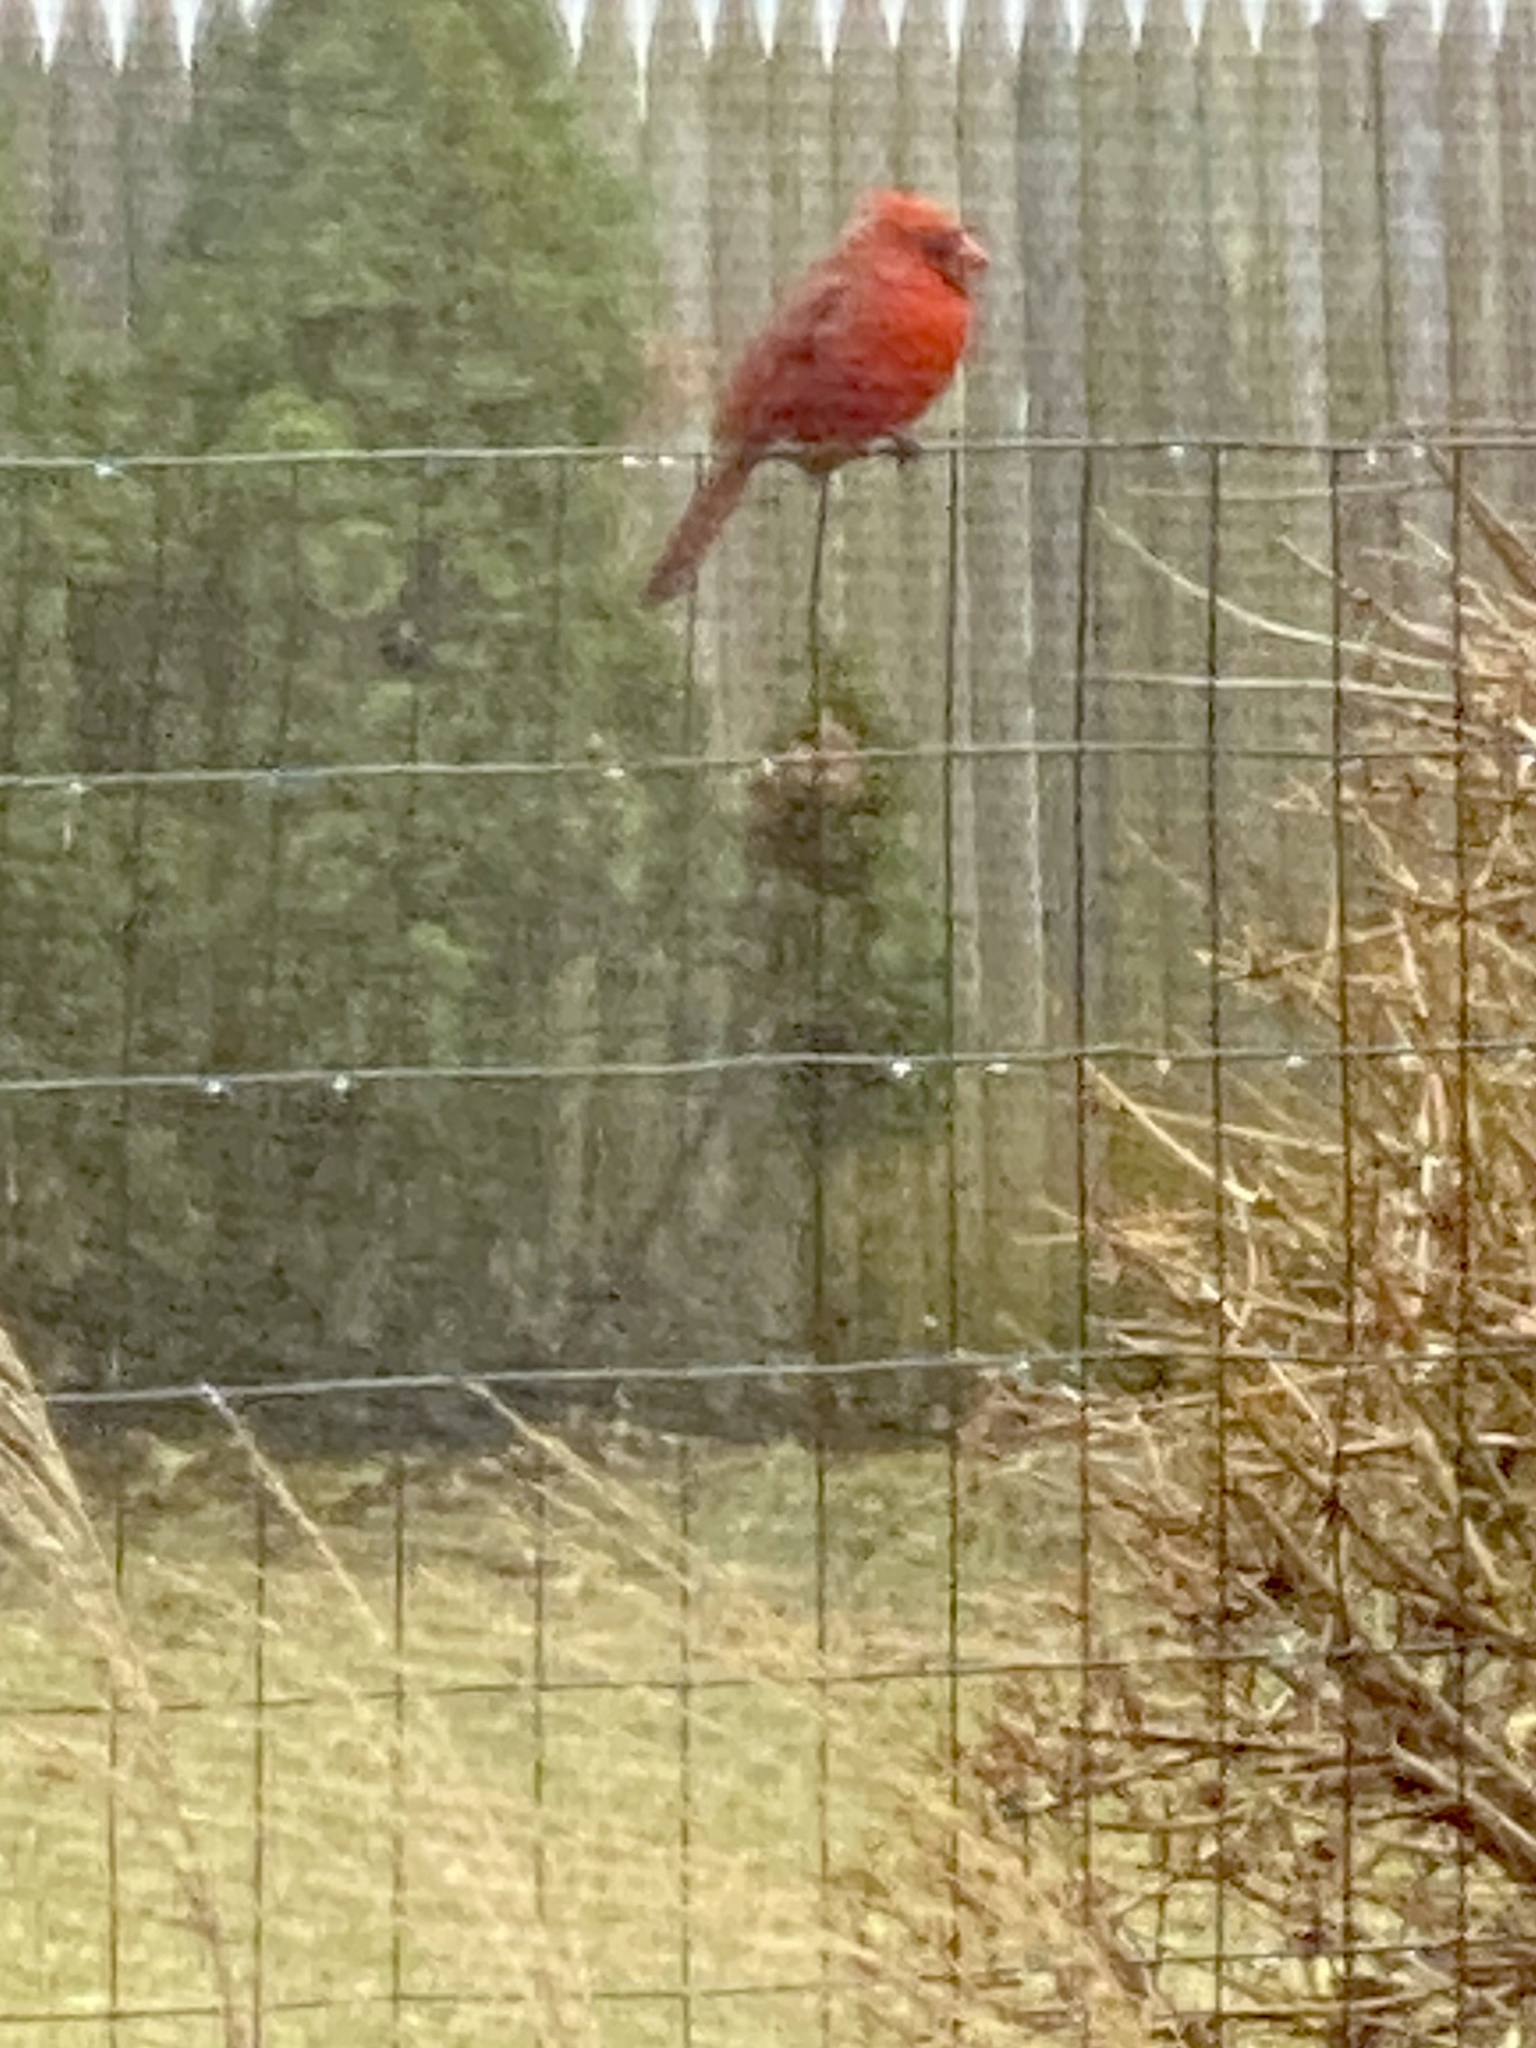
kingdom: Animalia
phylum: Chordata
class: Aves
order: Passeriformes
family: Cardinalidae
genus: Cardinalis
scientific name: Cardinalis cardinalis
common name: Northern cardinal
